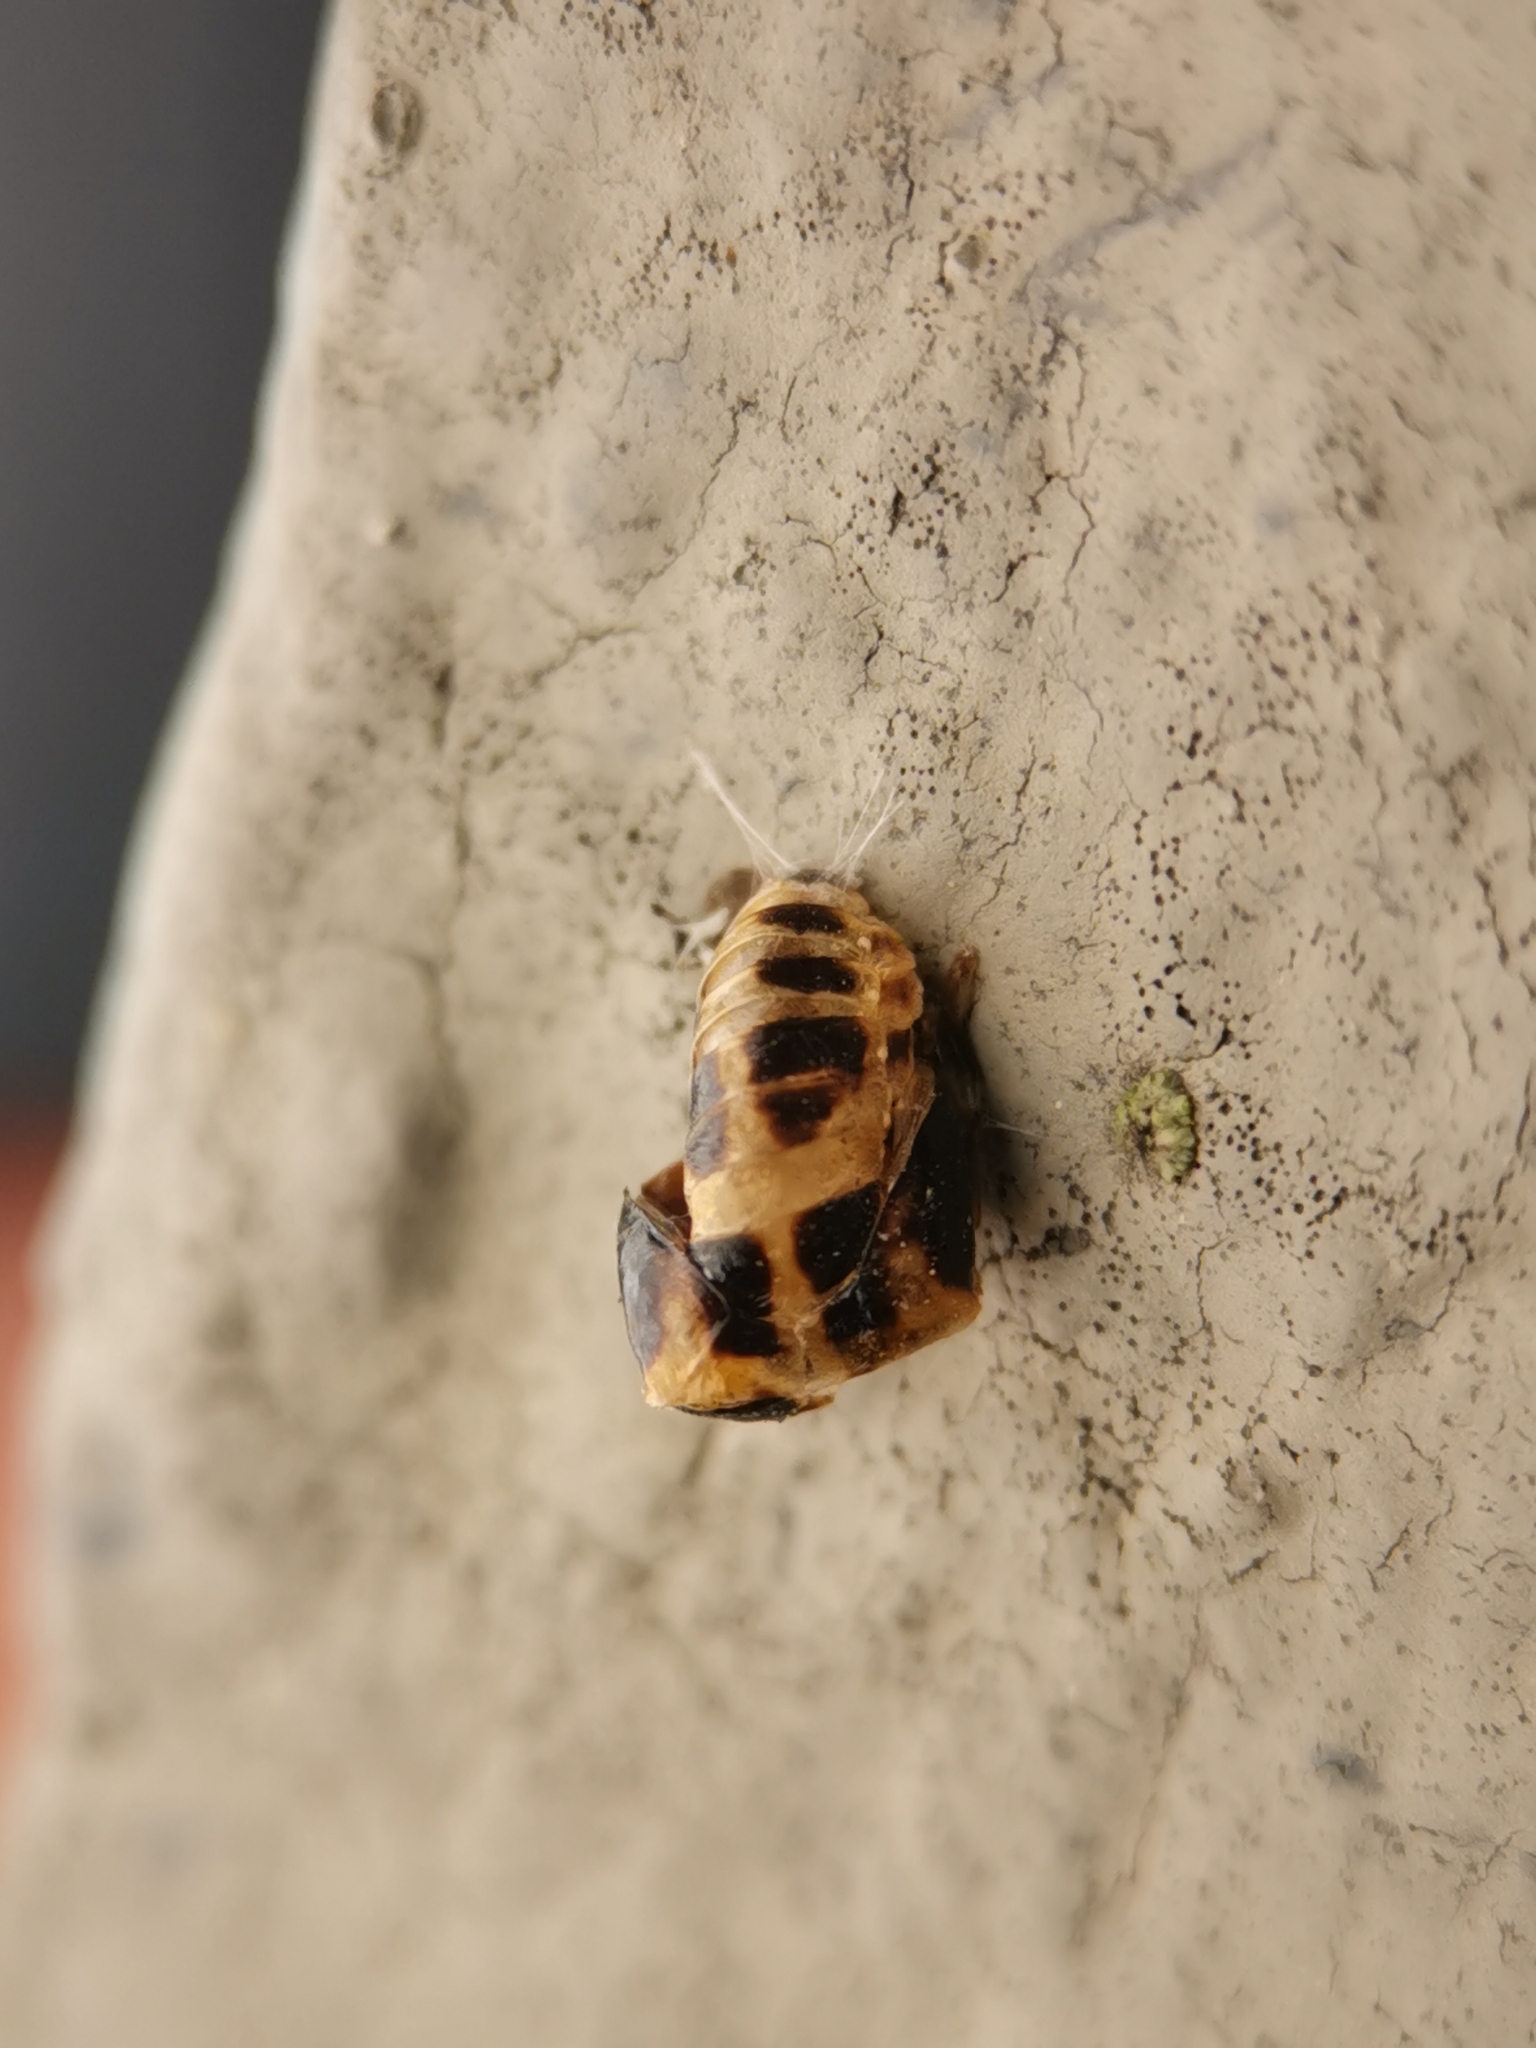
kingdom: Animalia
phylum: Arthropoda
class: Insecta
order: Coleoptera
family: Coccinellidae
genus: Harmonia
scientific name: Harmonia axyridis
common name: Harlequin ladybird
